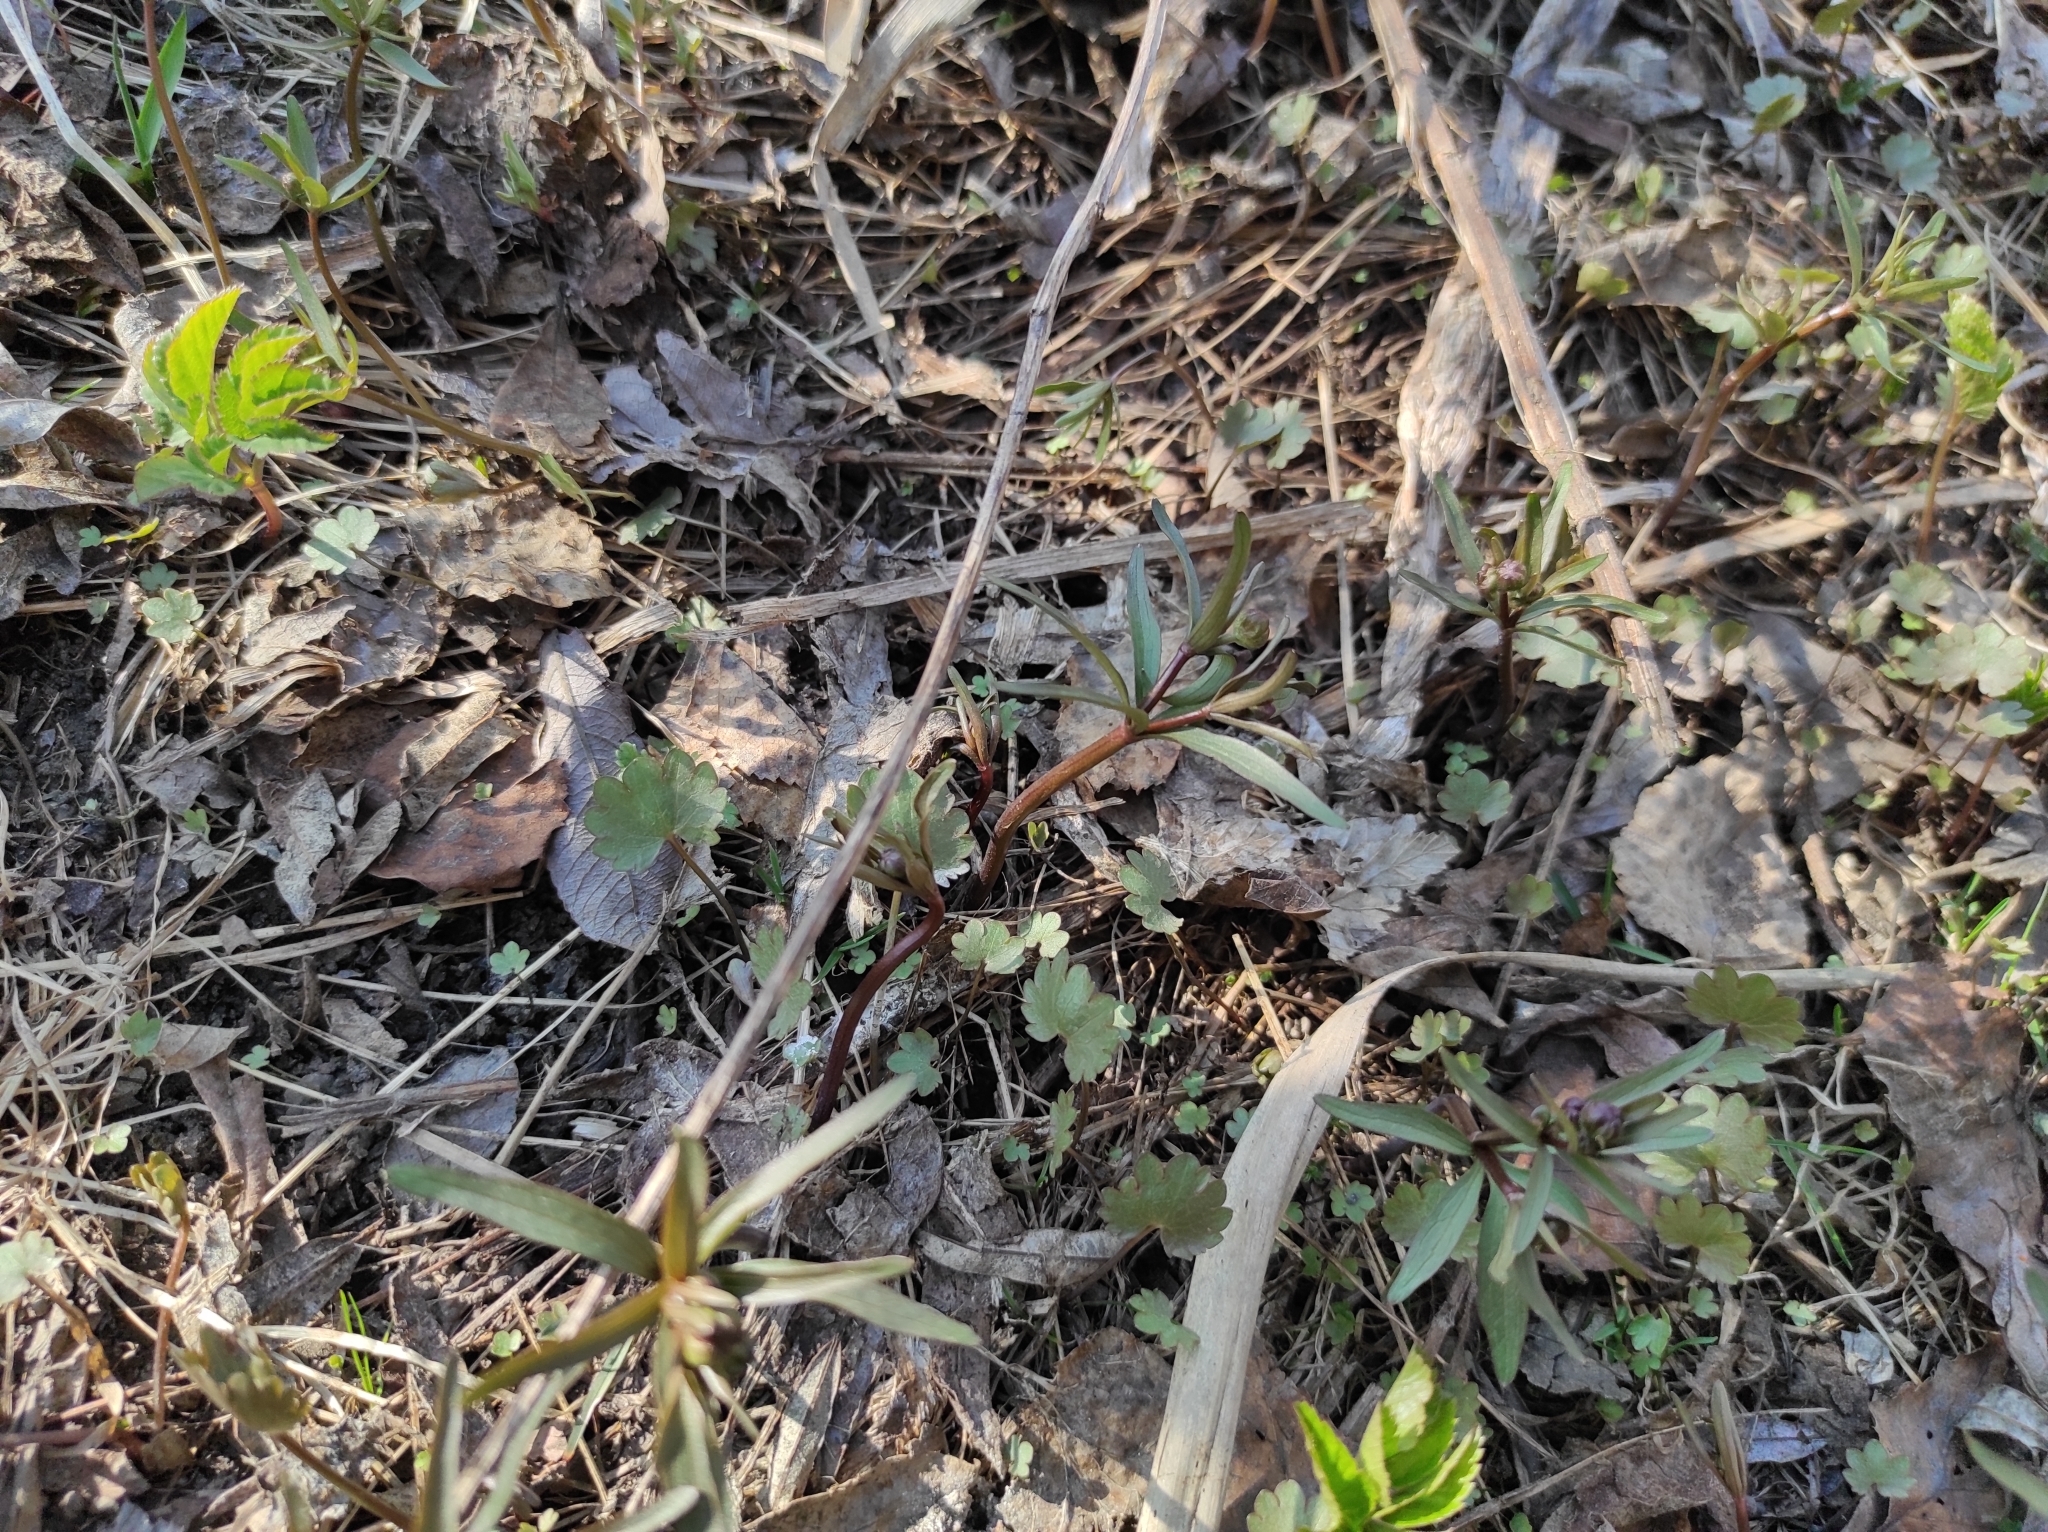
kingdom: Plantae
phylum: Tracheophyta
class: Magnoliopsida
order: Ranunculales
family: Ranunculaceae
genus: Ranunculus
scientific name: Ranunculus monophyllus
